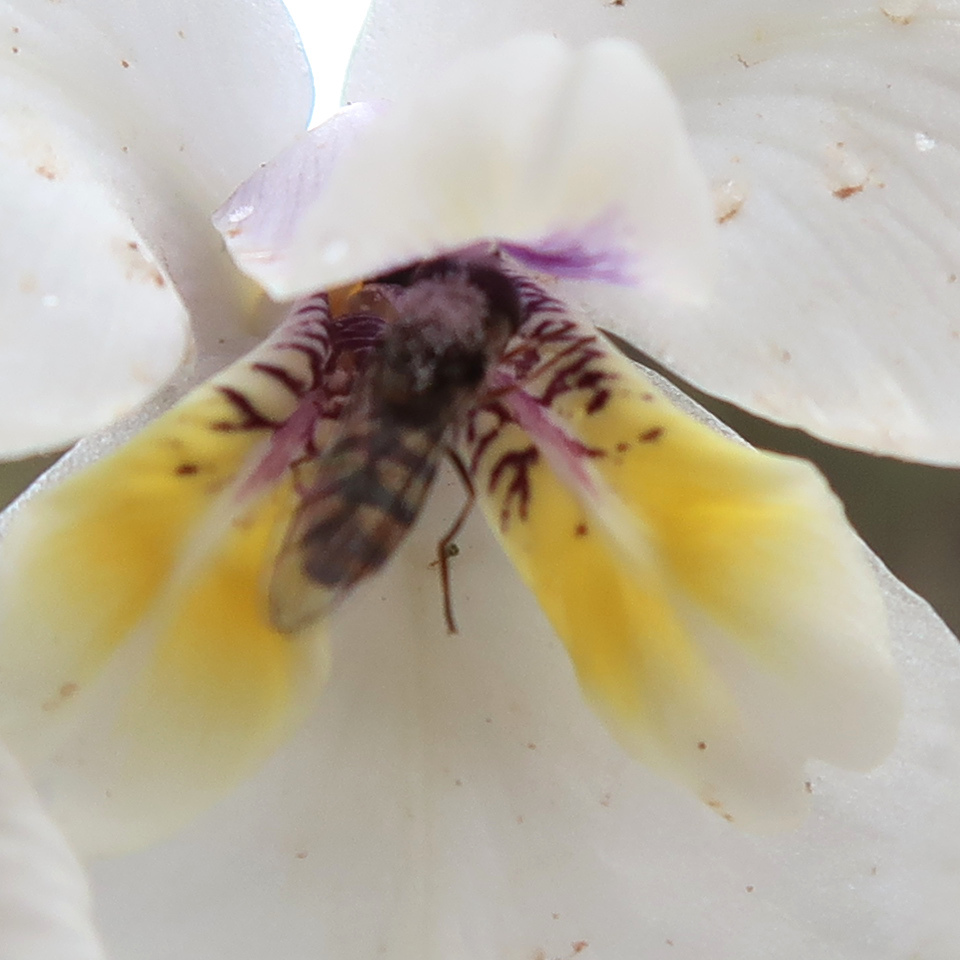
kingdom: Animalia
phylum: Arthropoda
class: Insecta
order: Diptera
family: Syrphidae
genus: Melangyna
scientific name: Melangyna viridiceps
